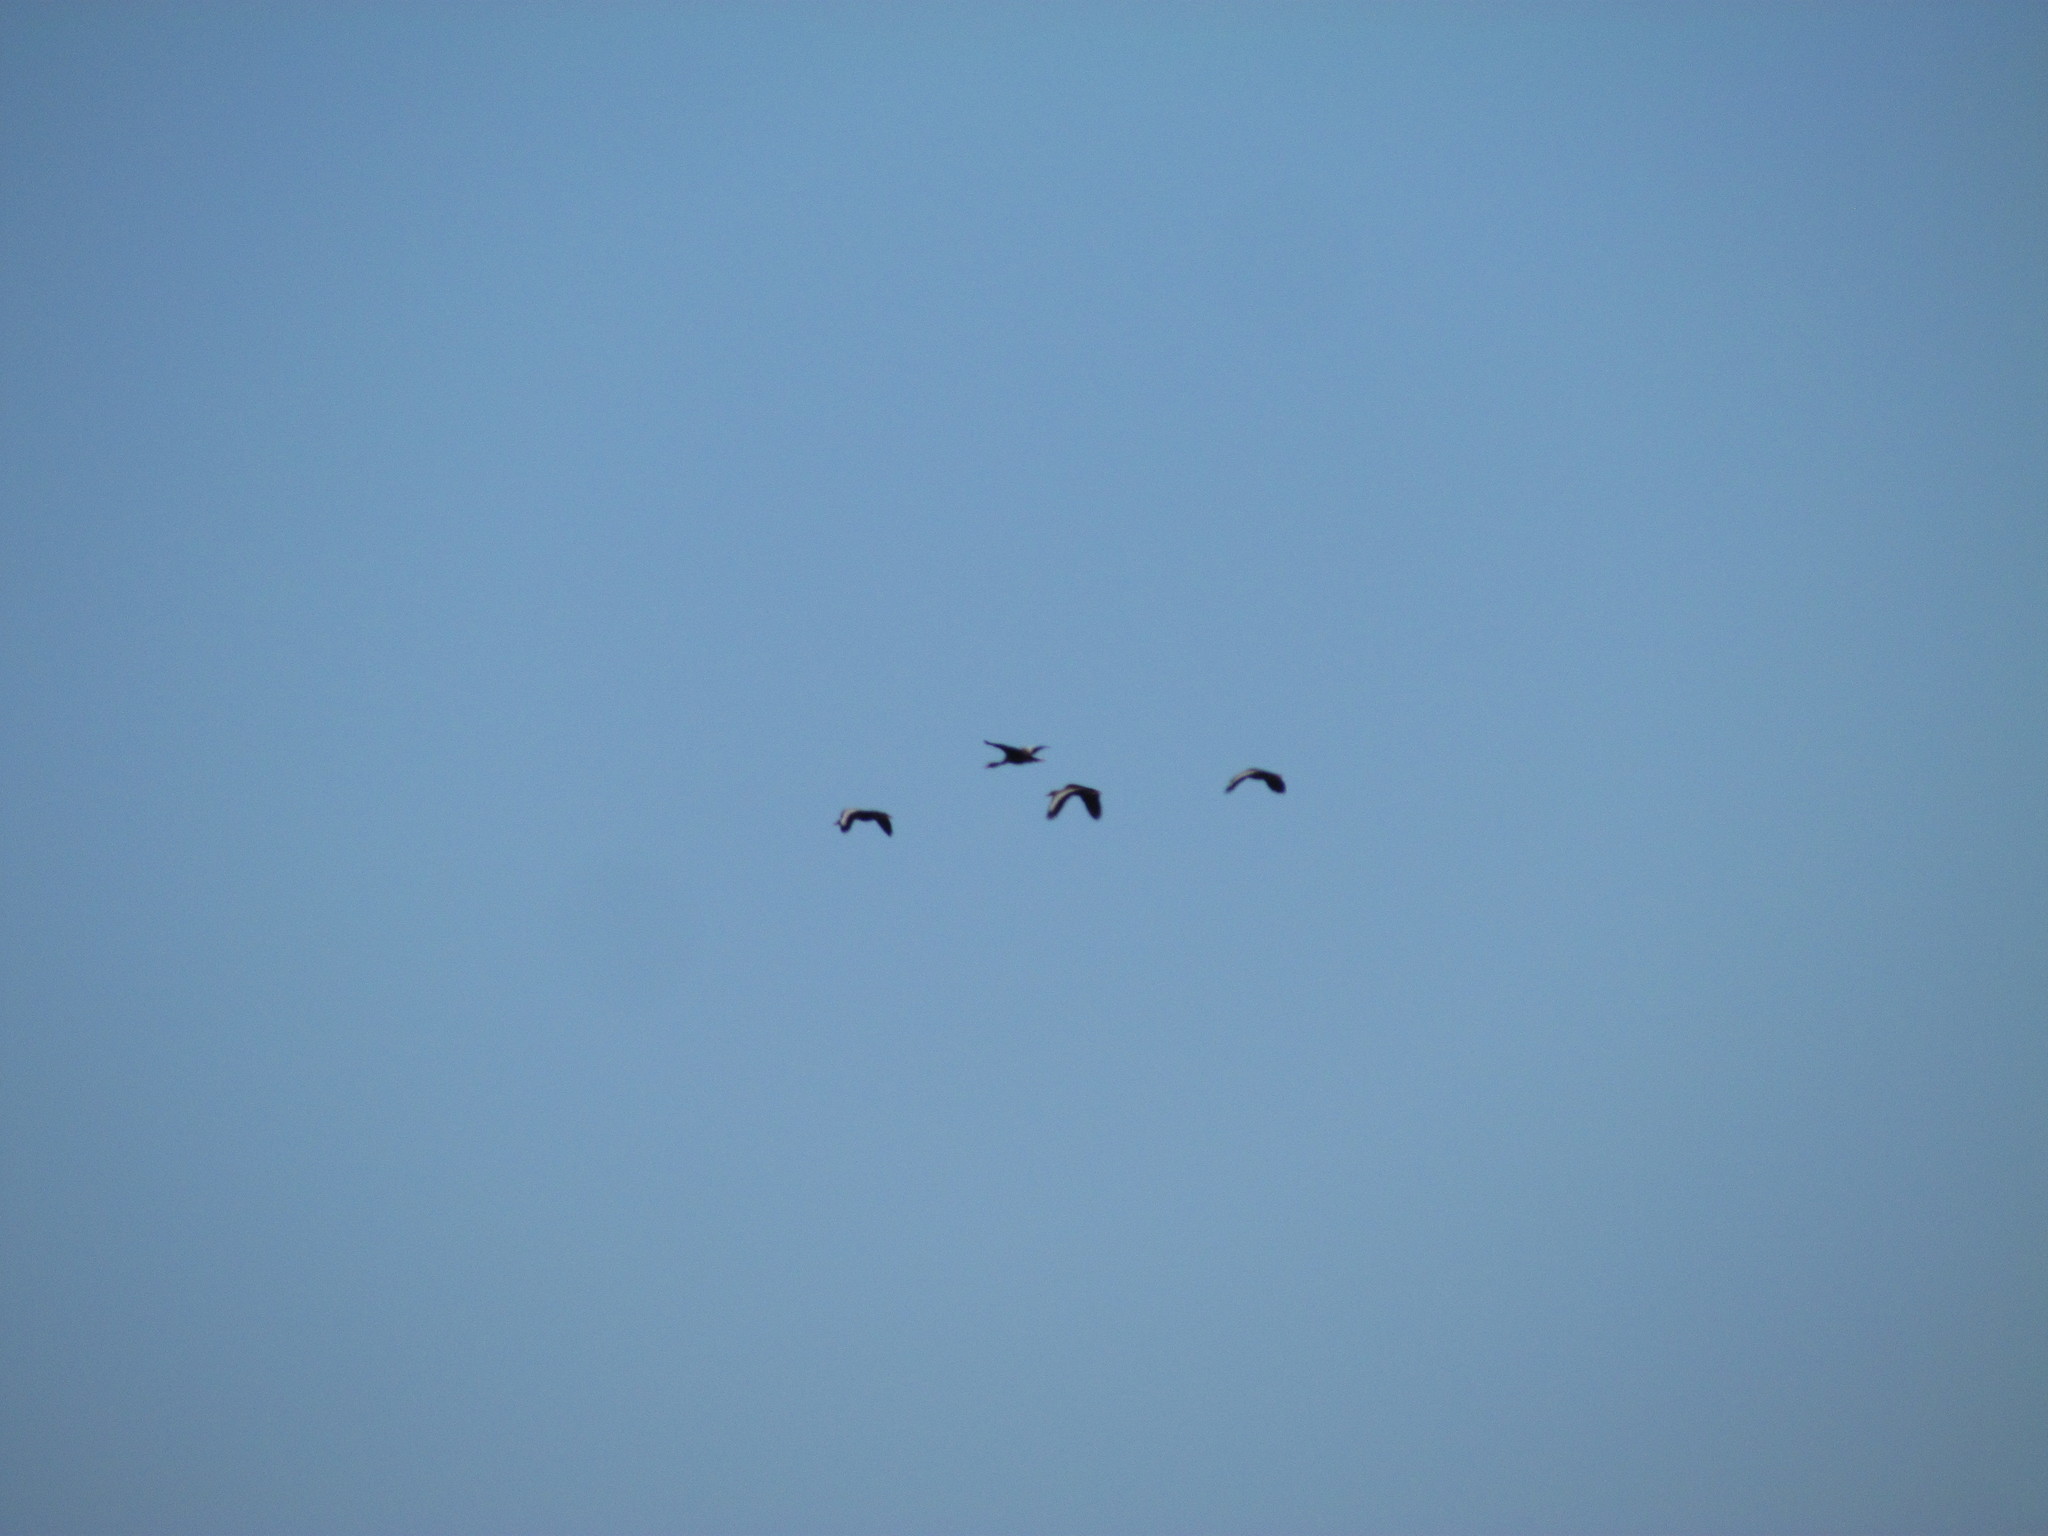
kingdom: Animalia
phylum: Chordata
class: Aves
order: Anseriformes
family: Anatidae
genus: Dendrocygna
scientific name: Dendrocygna autumnalis
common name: Black-bellied whistling duck
